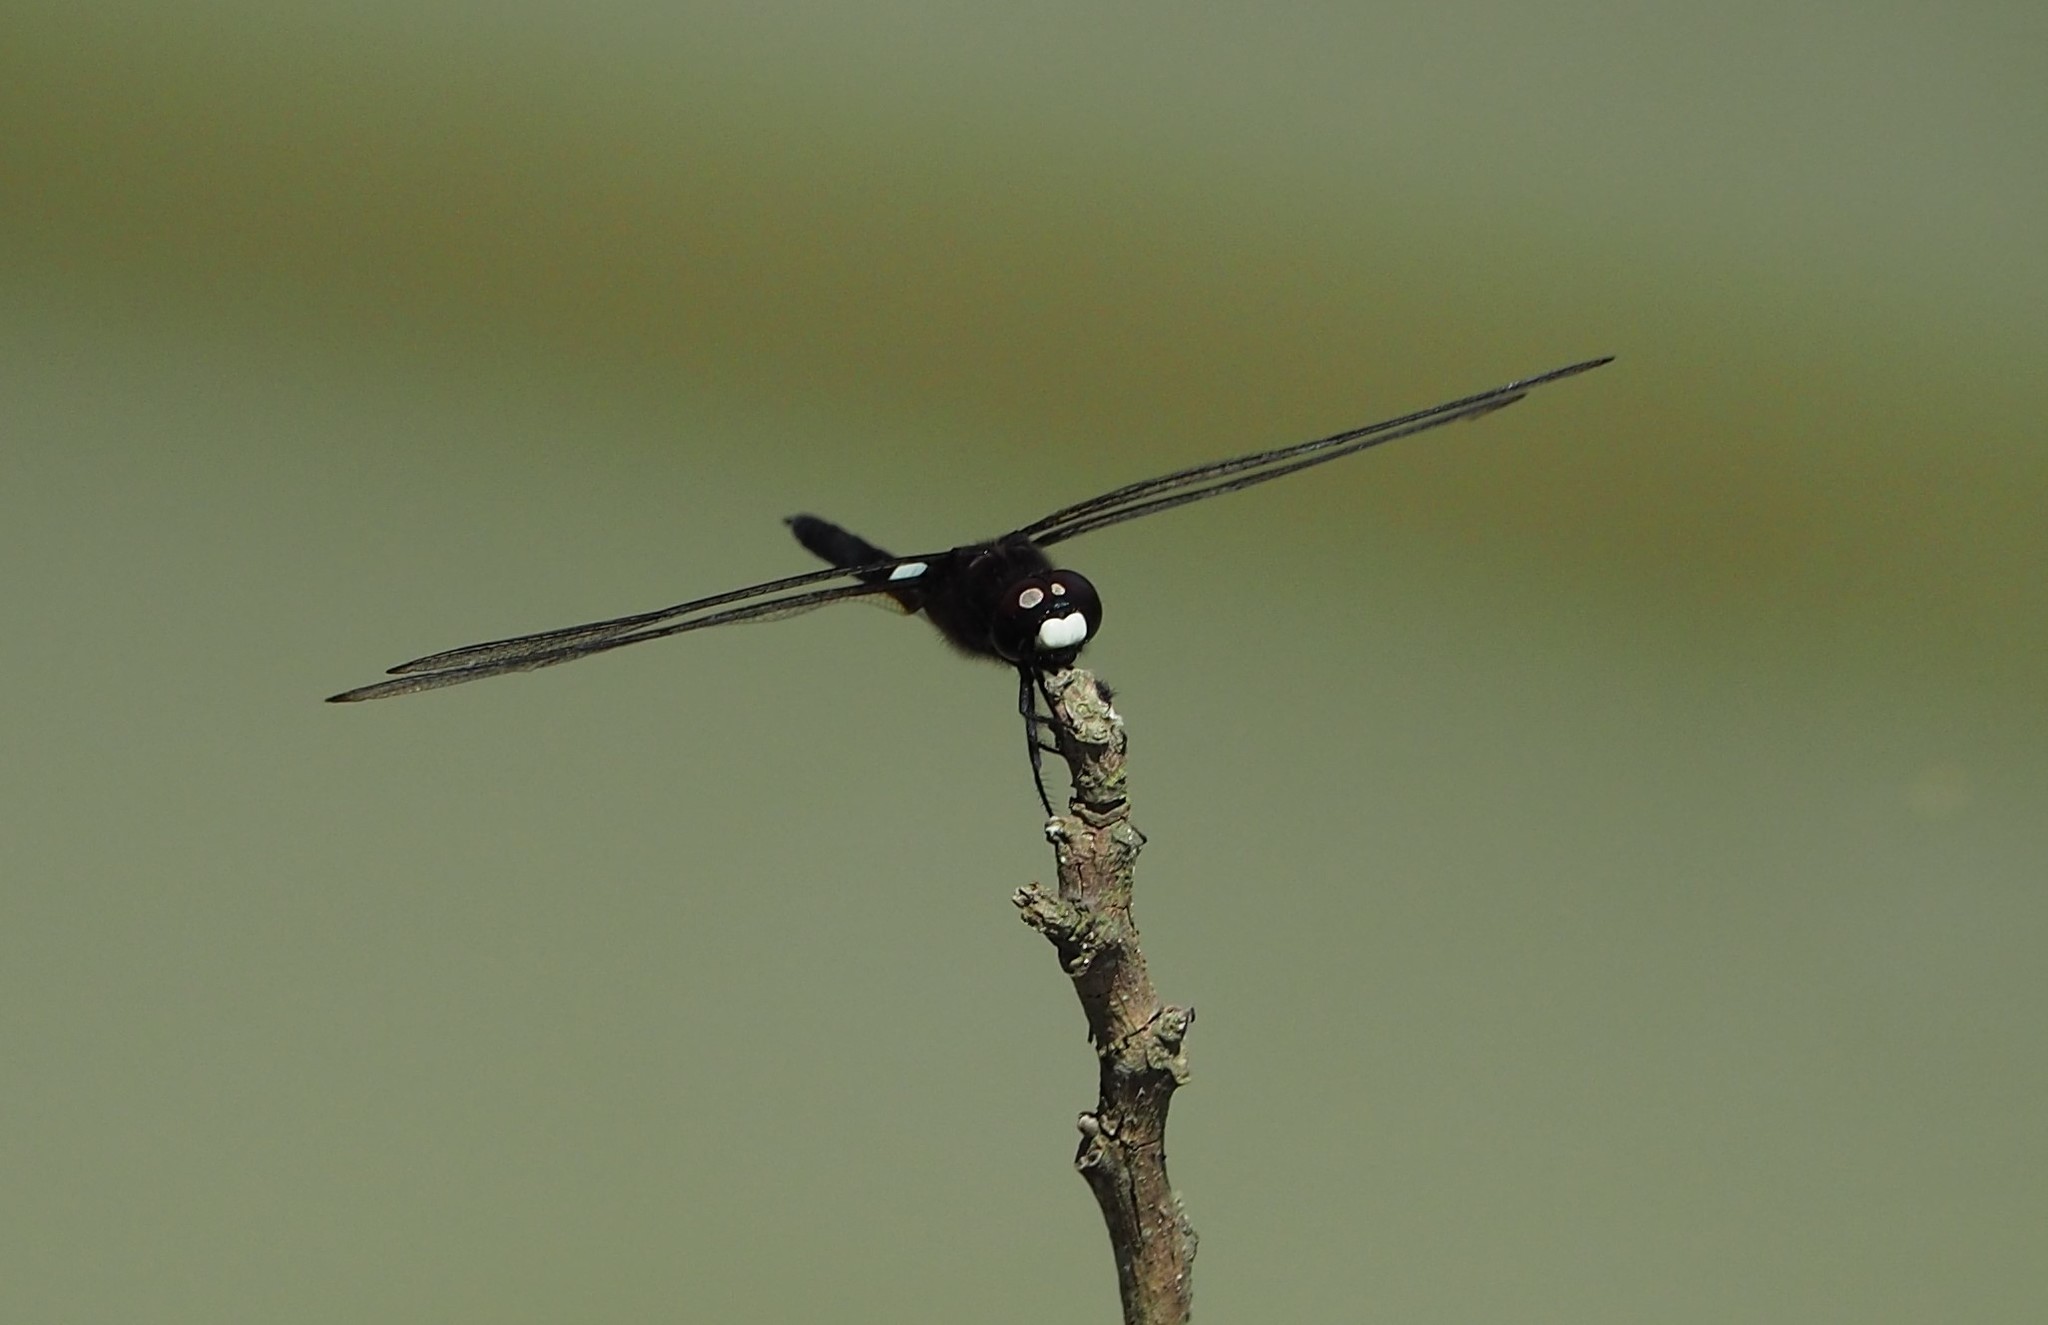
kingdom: Animalia
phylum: Arthropoda
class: Insecta
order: Odonata
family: Libellulidae
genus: Pseudothemis
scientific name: Pseudothemis zonata
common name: Pied skimmer
